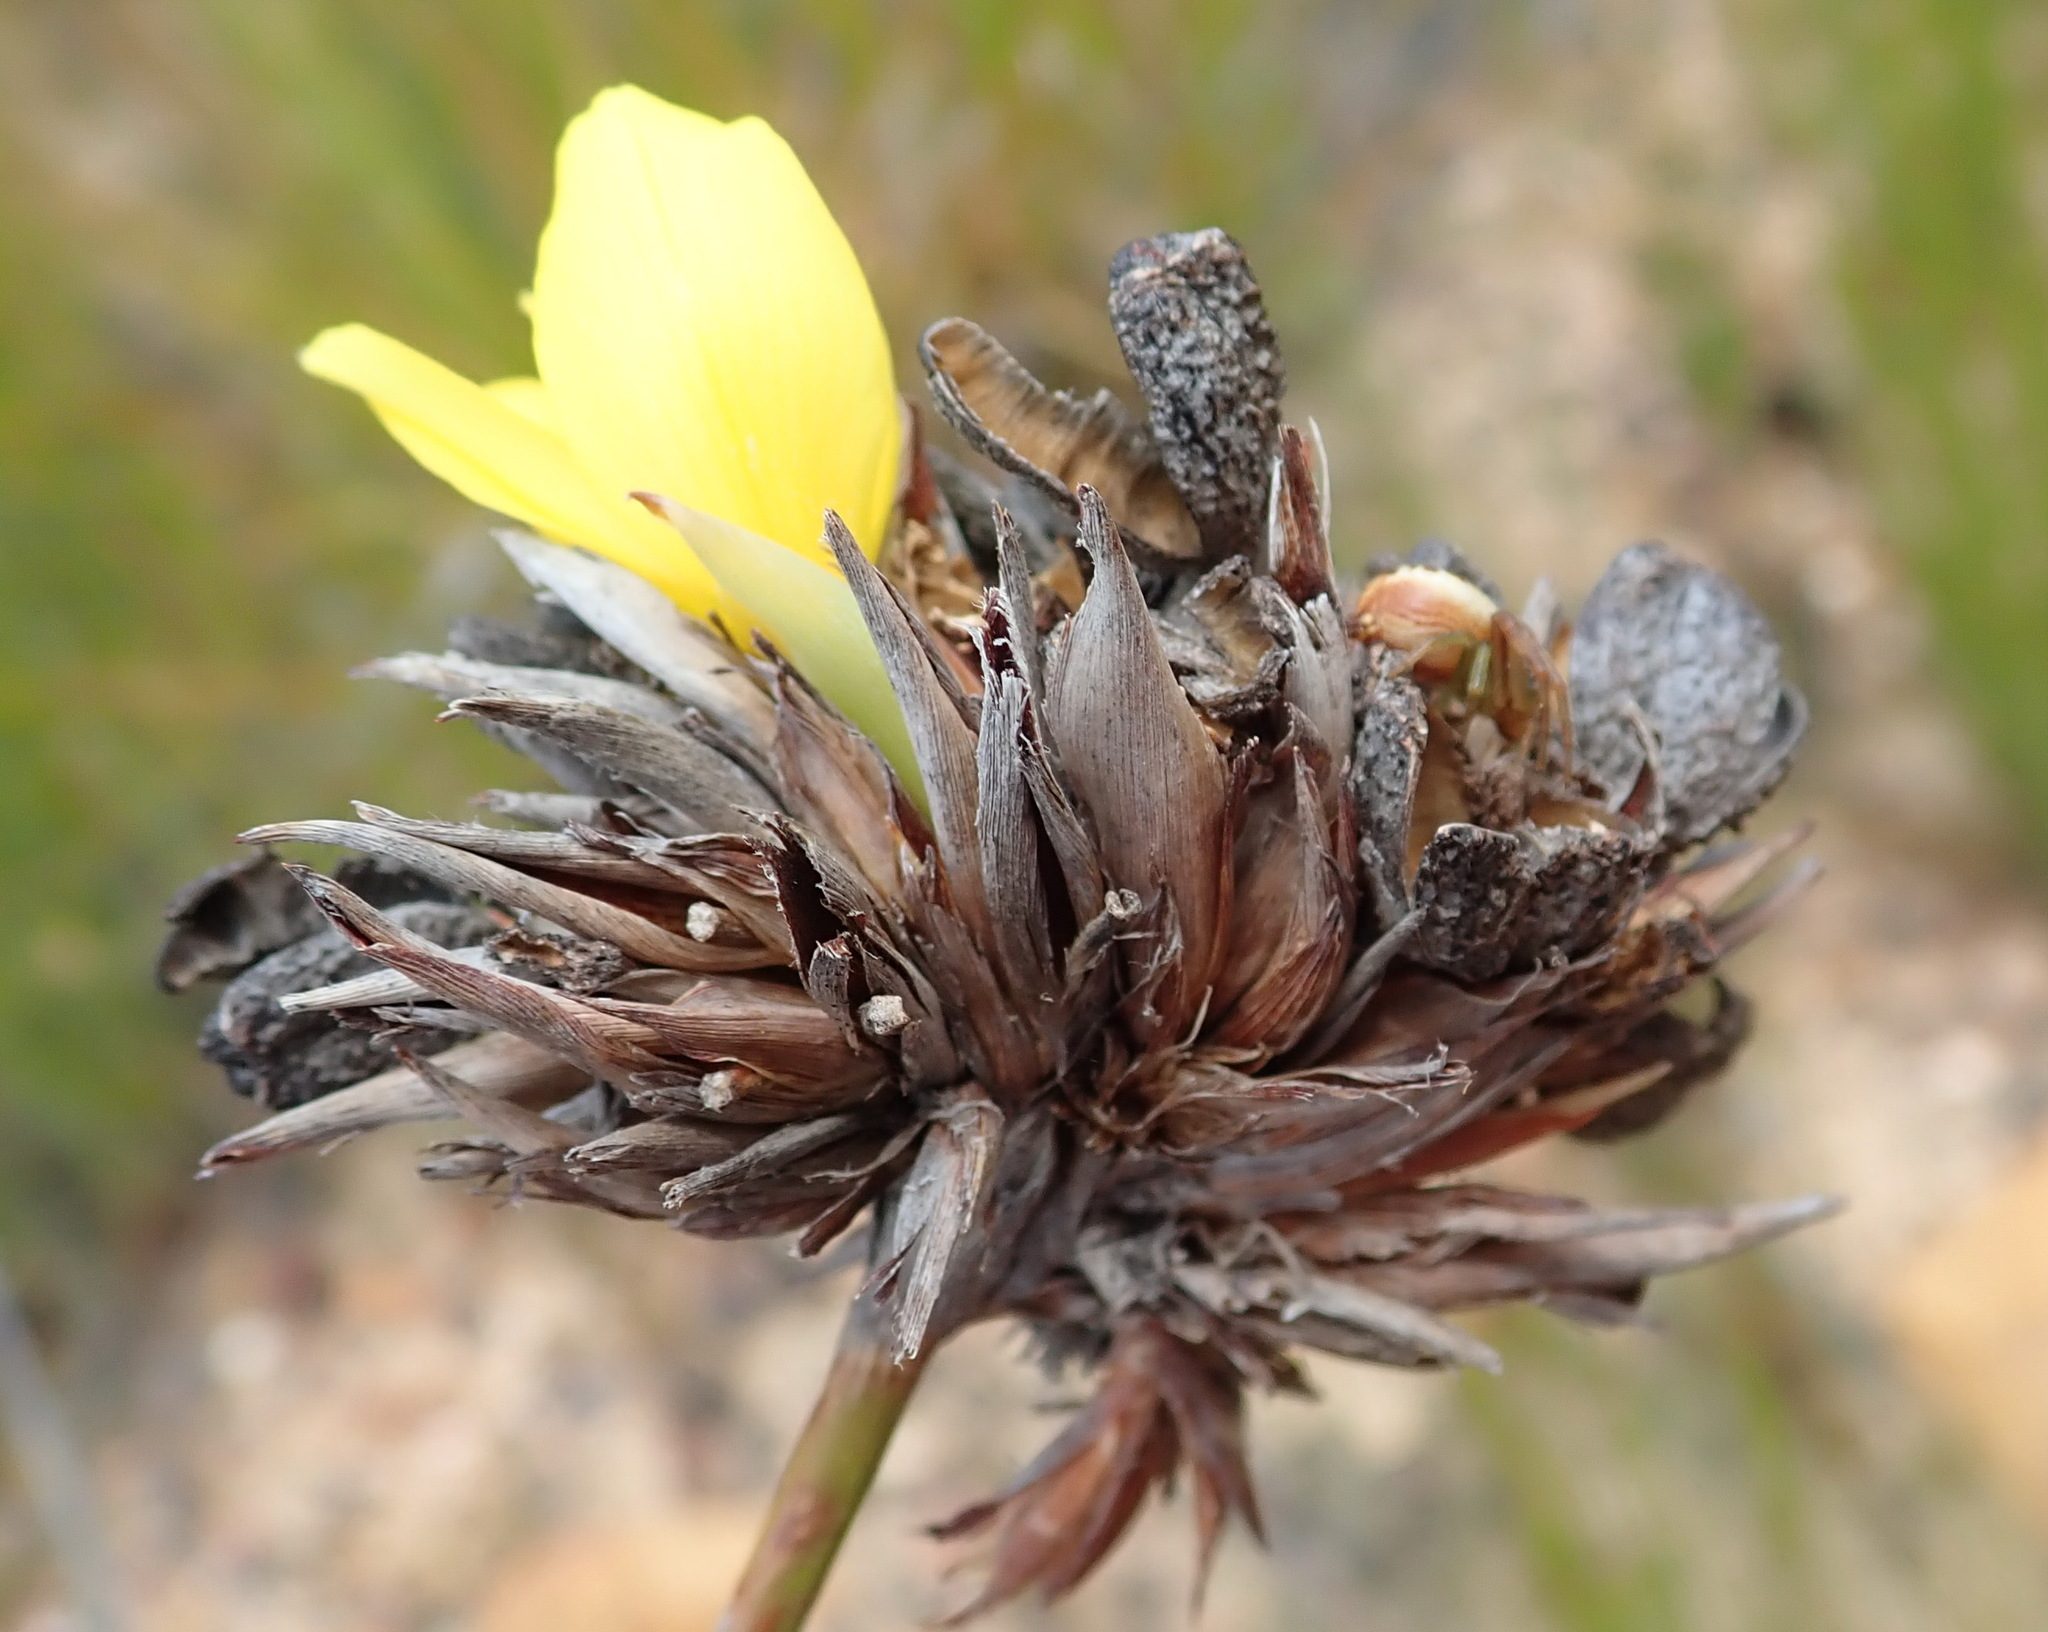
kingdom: Plantae
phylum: Tracheophyta
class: Liliopsida
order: Asparagales
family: Iridaceae
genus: Bobartia
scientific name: Bobartia macrospatha
